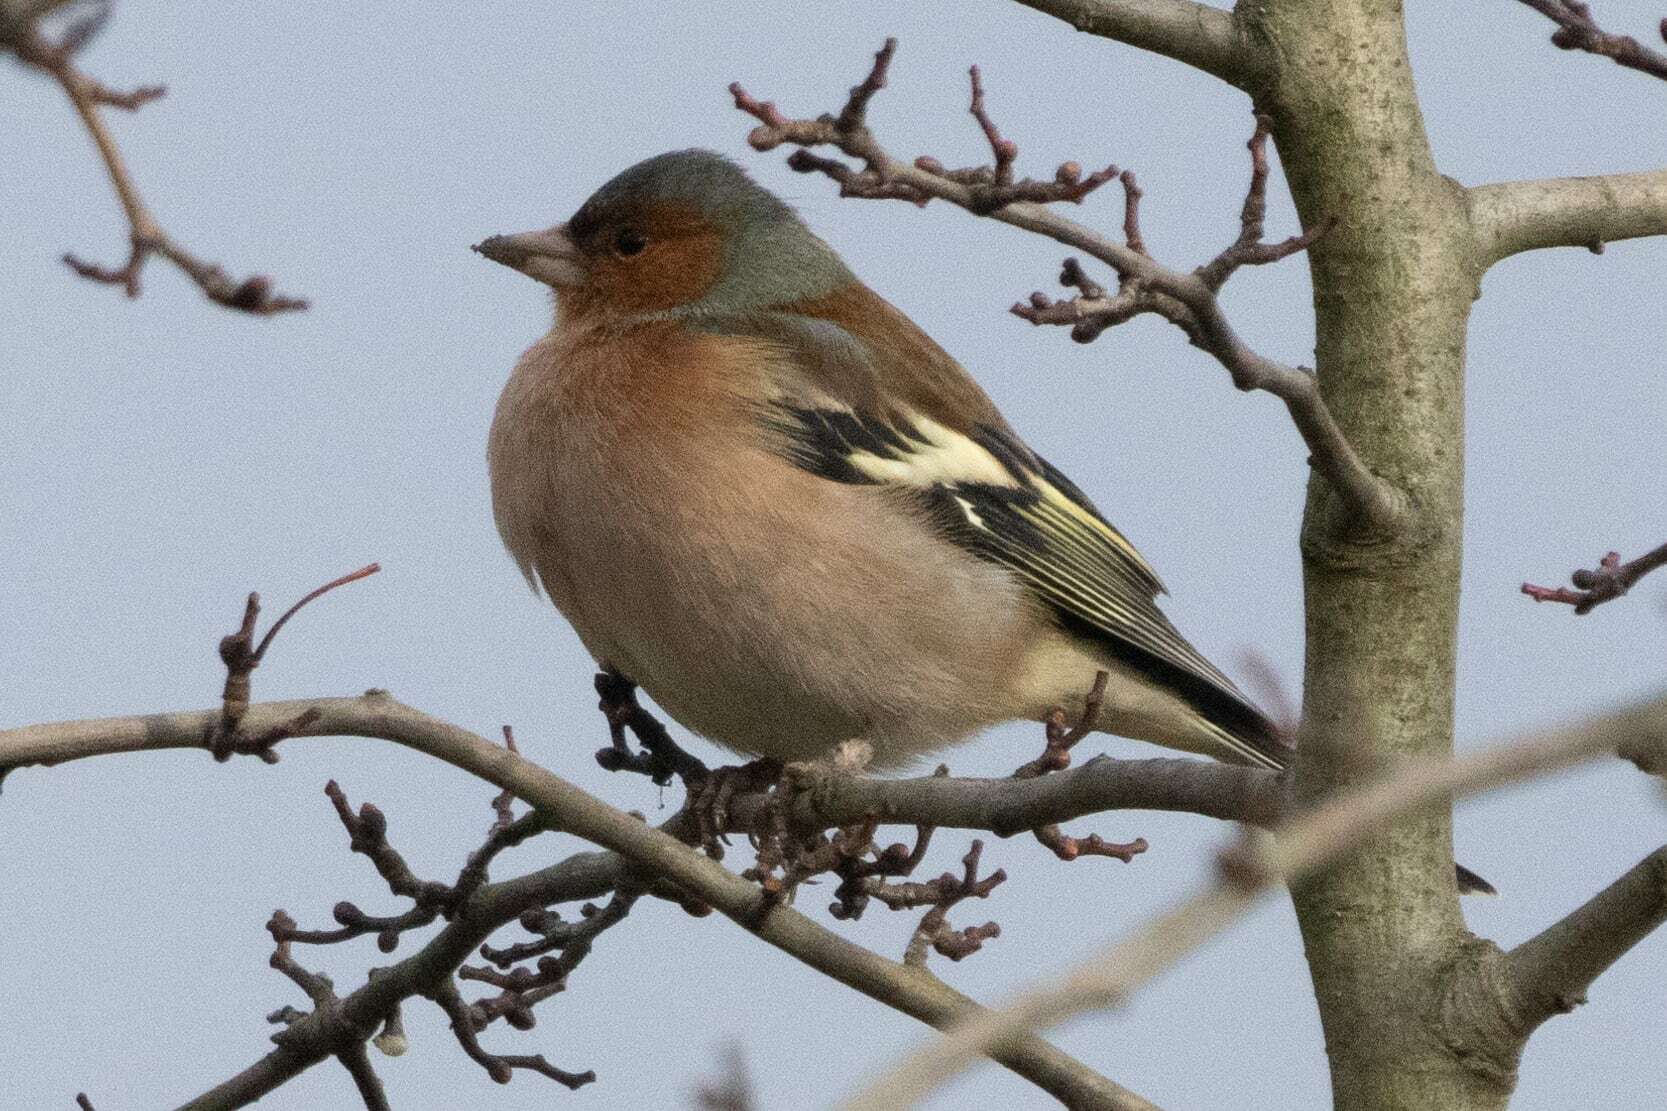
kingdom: Animalia
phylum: Chordata
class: Aves
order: Passeriformes
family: Fringillidae
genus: Fringilla
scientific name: Fringilla coelebs
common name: Common chaffinch
